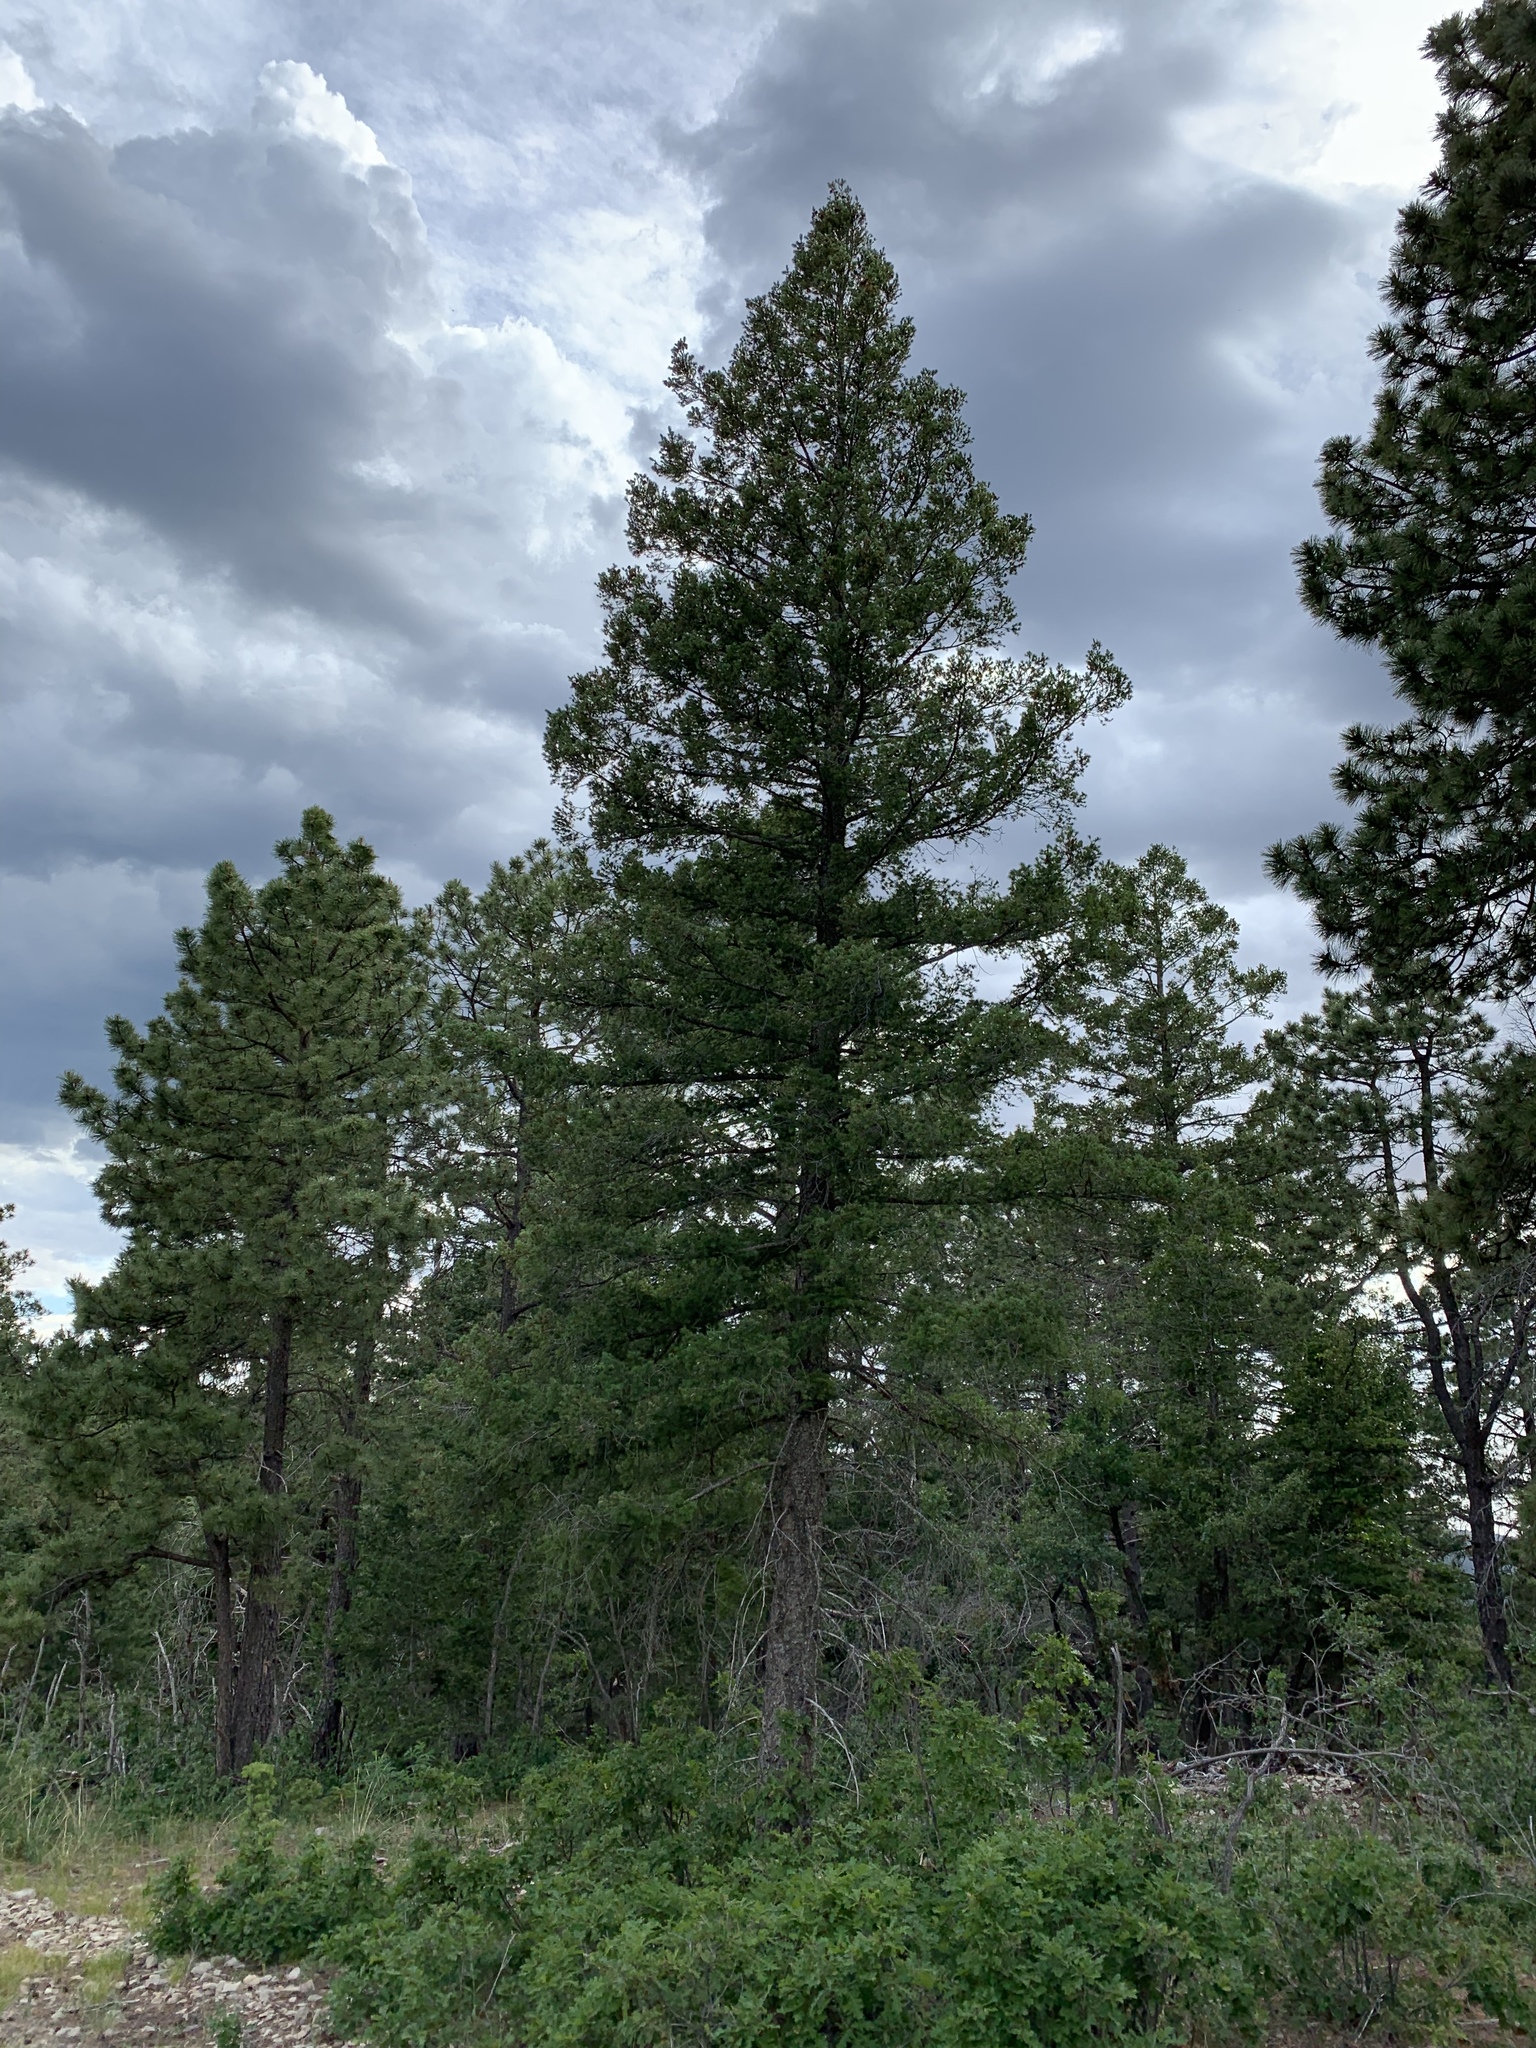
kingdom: Plantae
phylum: Tracheophyta
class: Pinopsida
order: Pinales
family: Pinaceae
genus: Pseudotsuga
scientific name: Pseudotsuga menziesii
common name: Douglas fir
